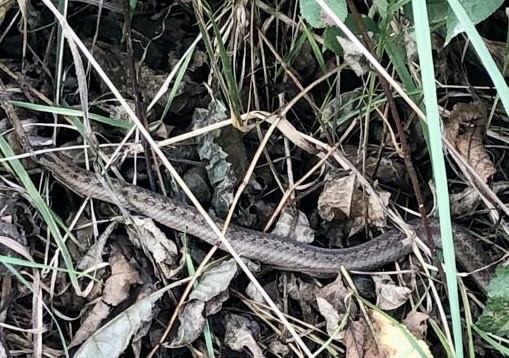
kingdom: Animalia
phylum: Chordata
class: Squamata
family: Colubridae
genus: Coronella
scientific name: Coronella austriaca
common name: Smooth snake
